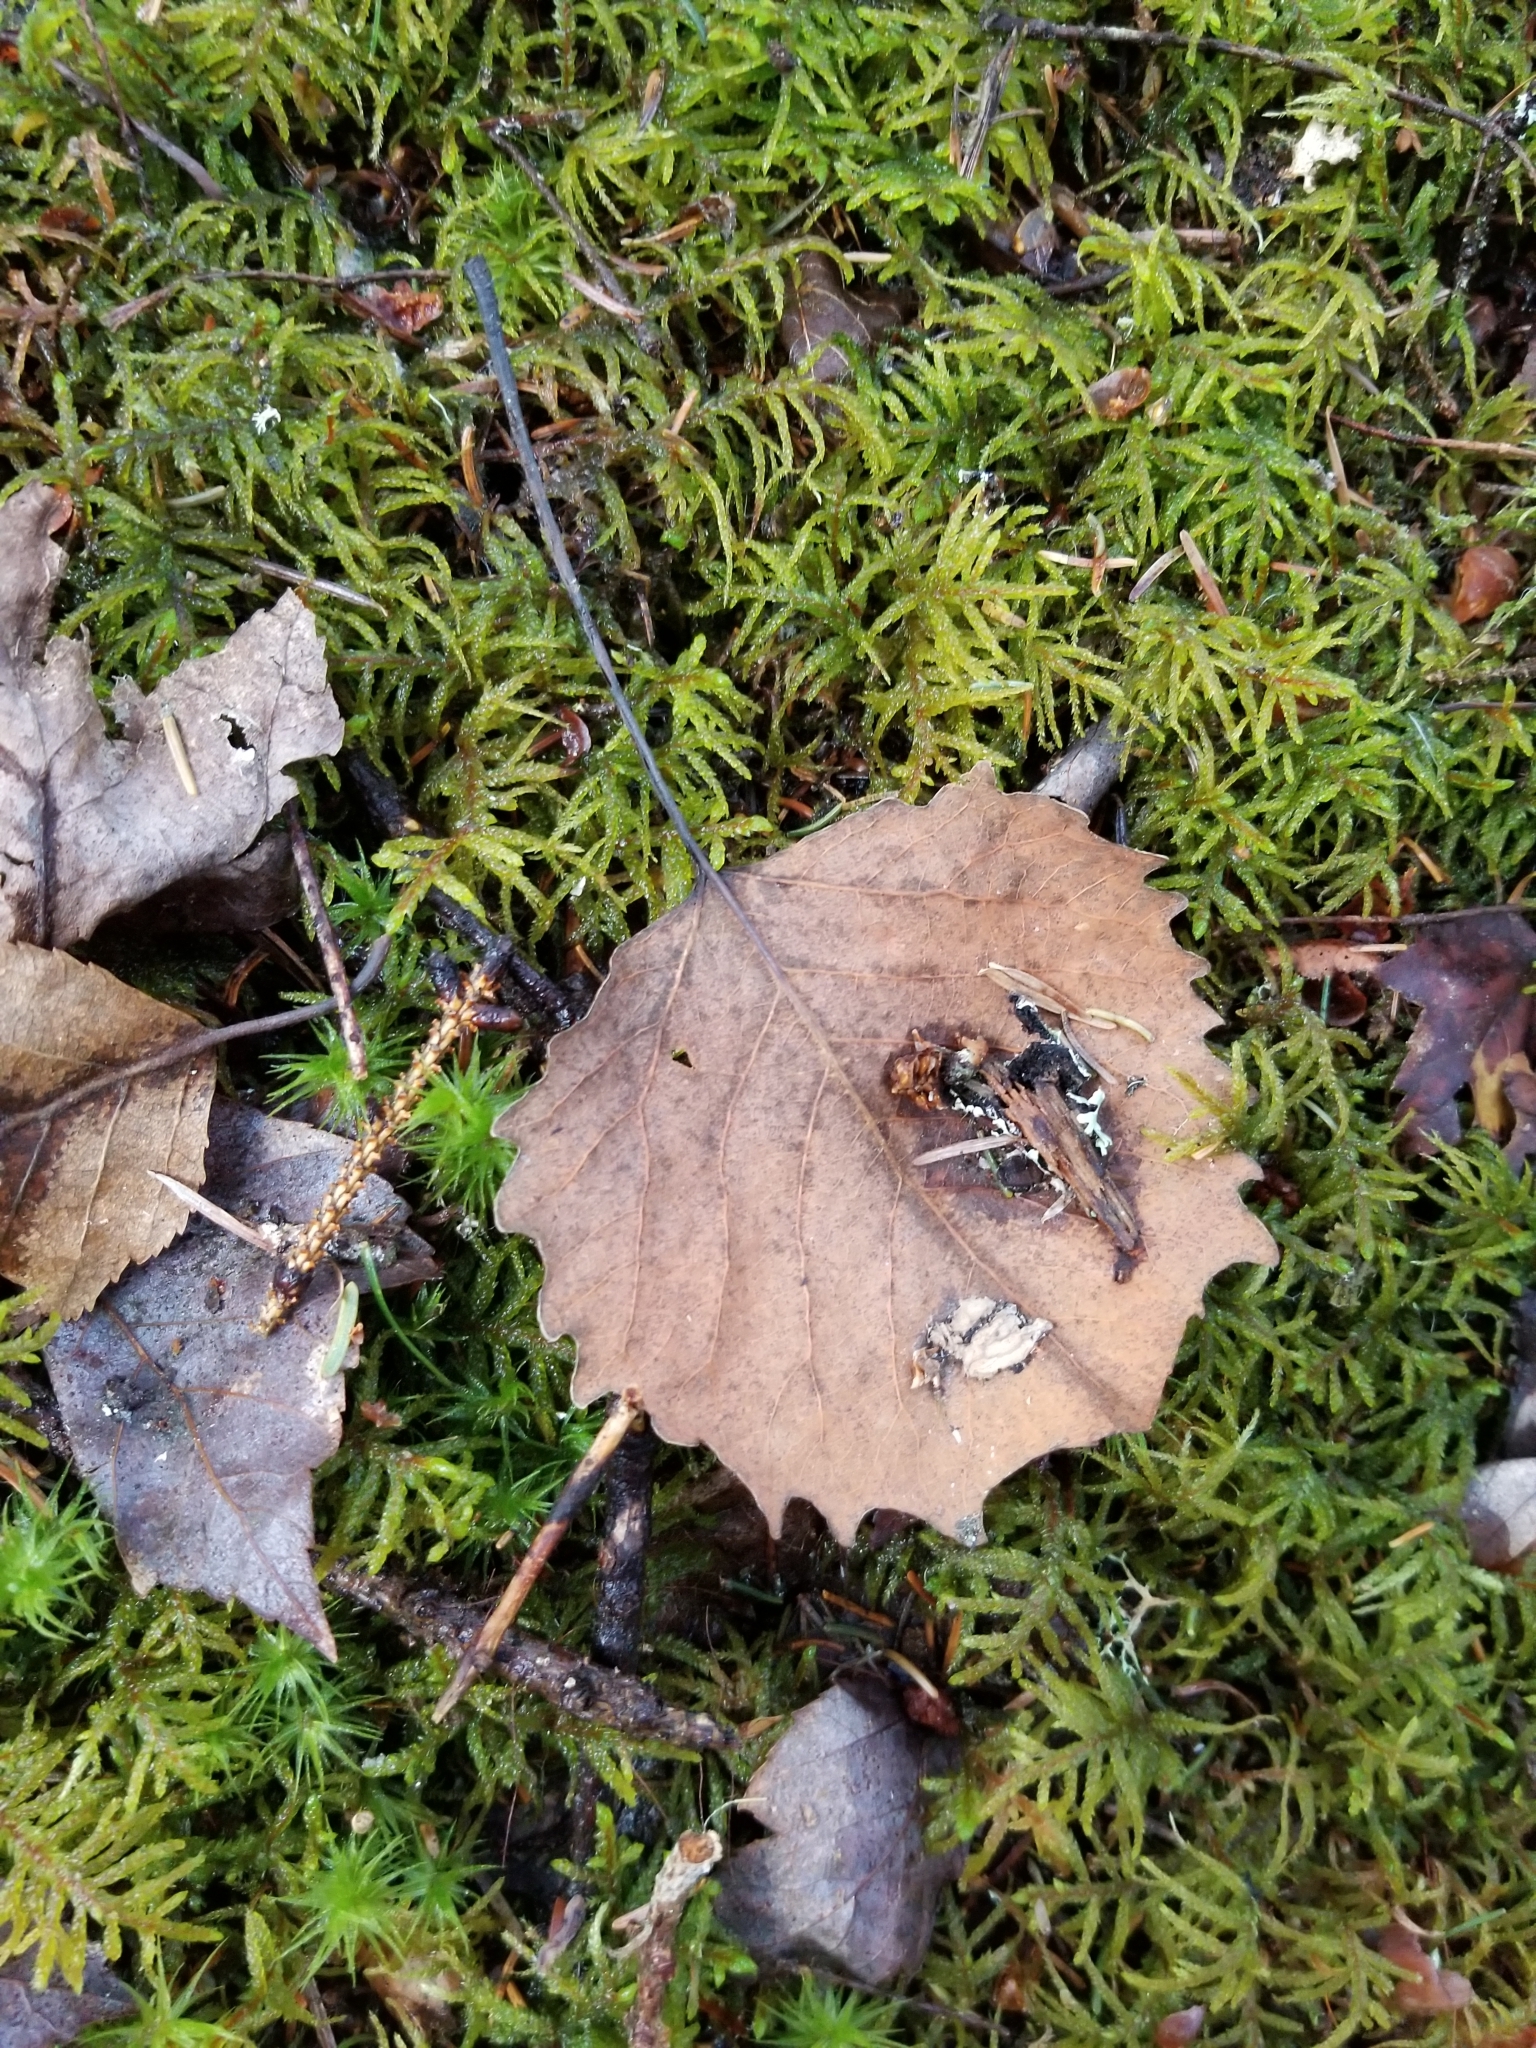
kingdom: Plantae
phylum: Tracheophyta
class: Magnoliopsida
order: Malpighiales
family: Salicaceae
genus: Populus
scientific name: Populus grandidentata
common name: Bigtooth aspen
